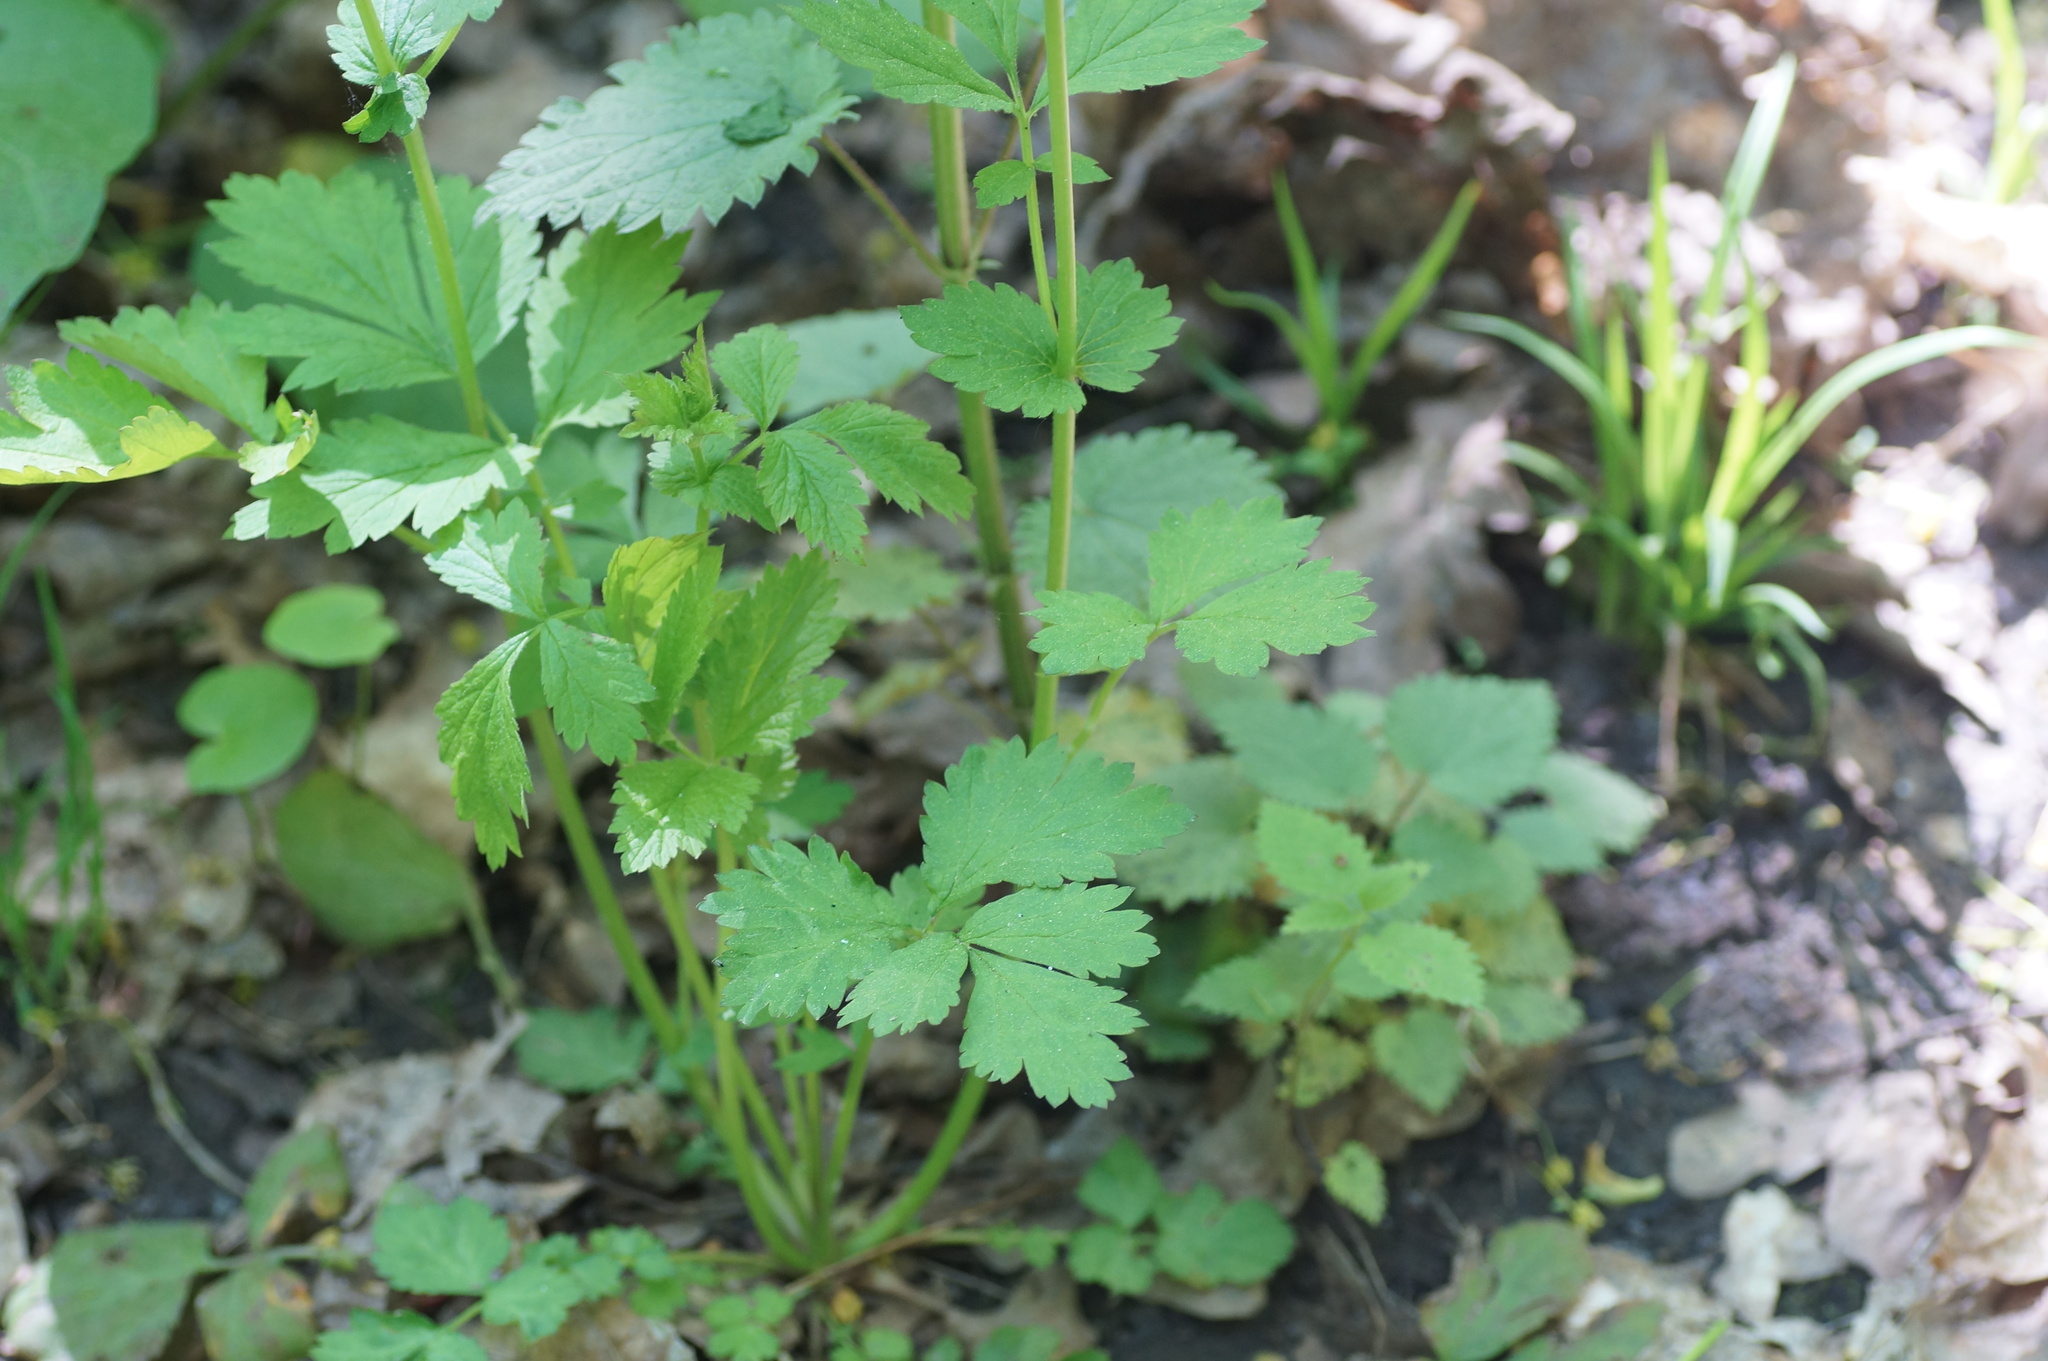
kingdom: Plantae
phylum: Tracheophyta
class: Magnoliopsida
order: Rosales
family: Rosaceae
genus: Geum
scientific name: Geum urbanum
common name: Wood avens
